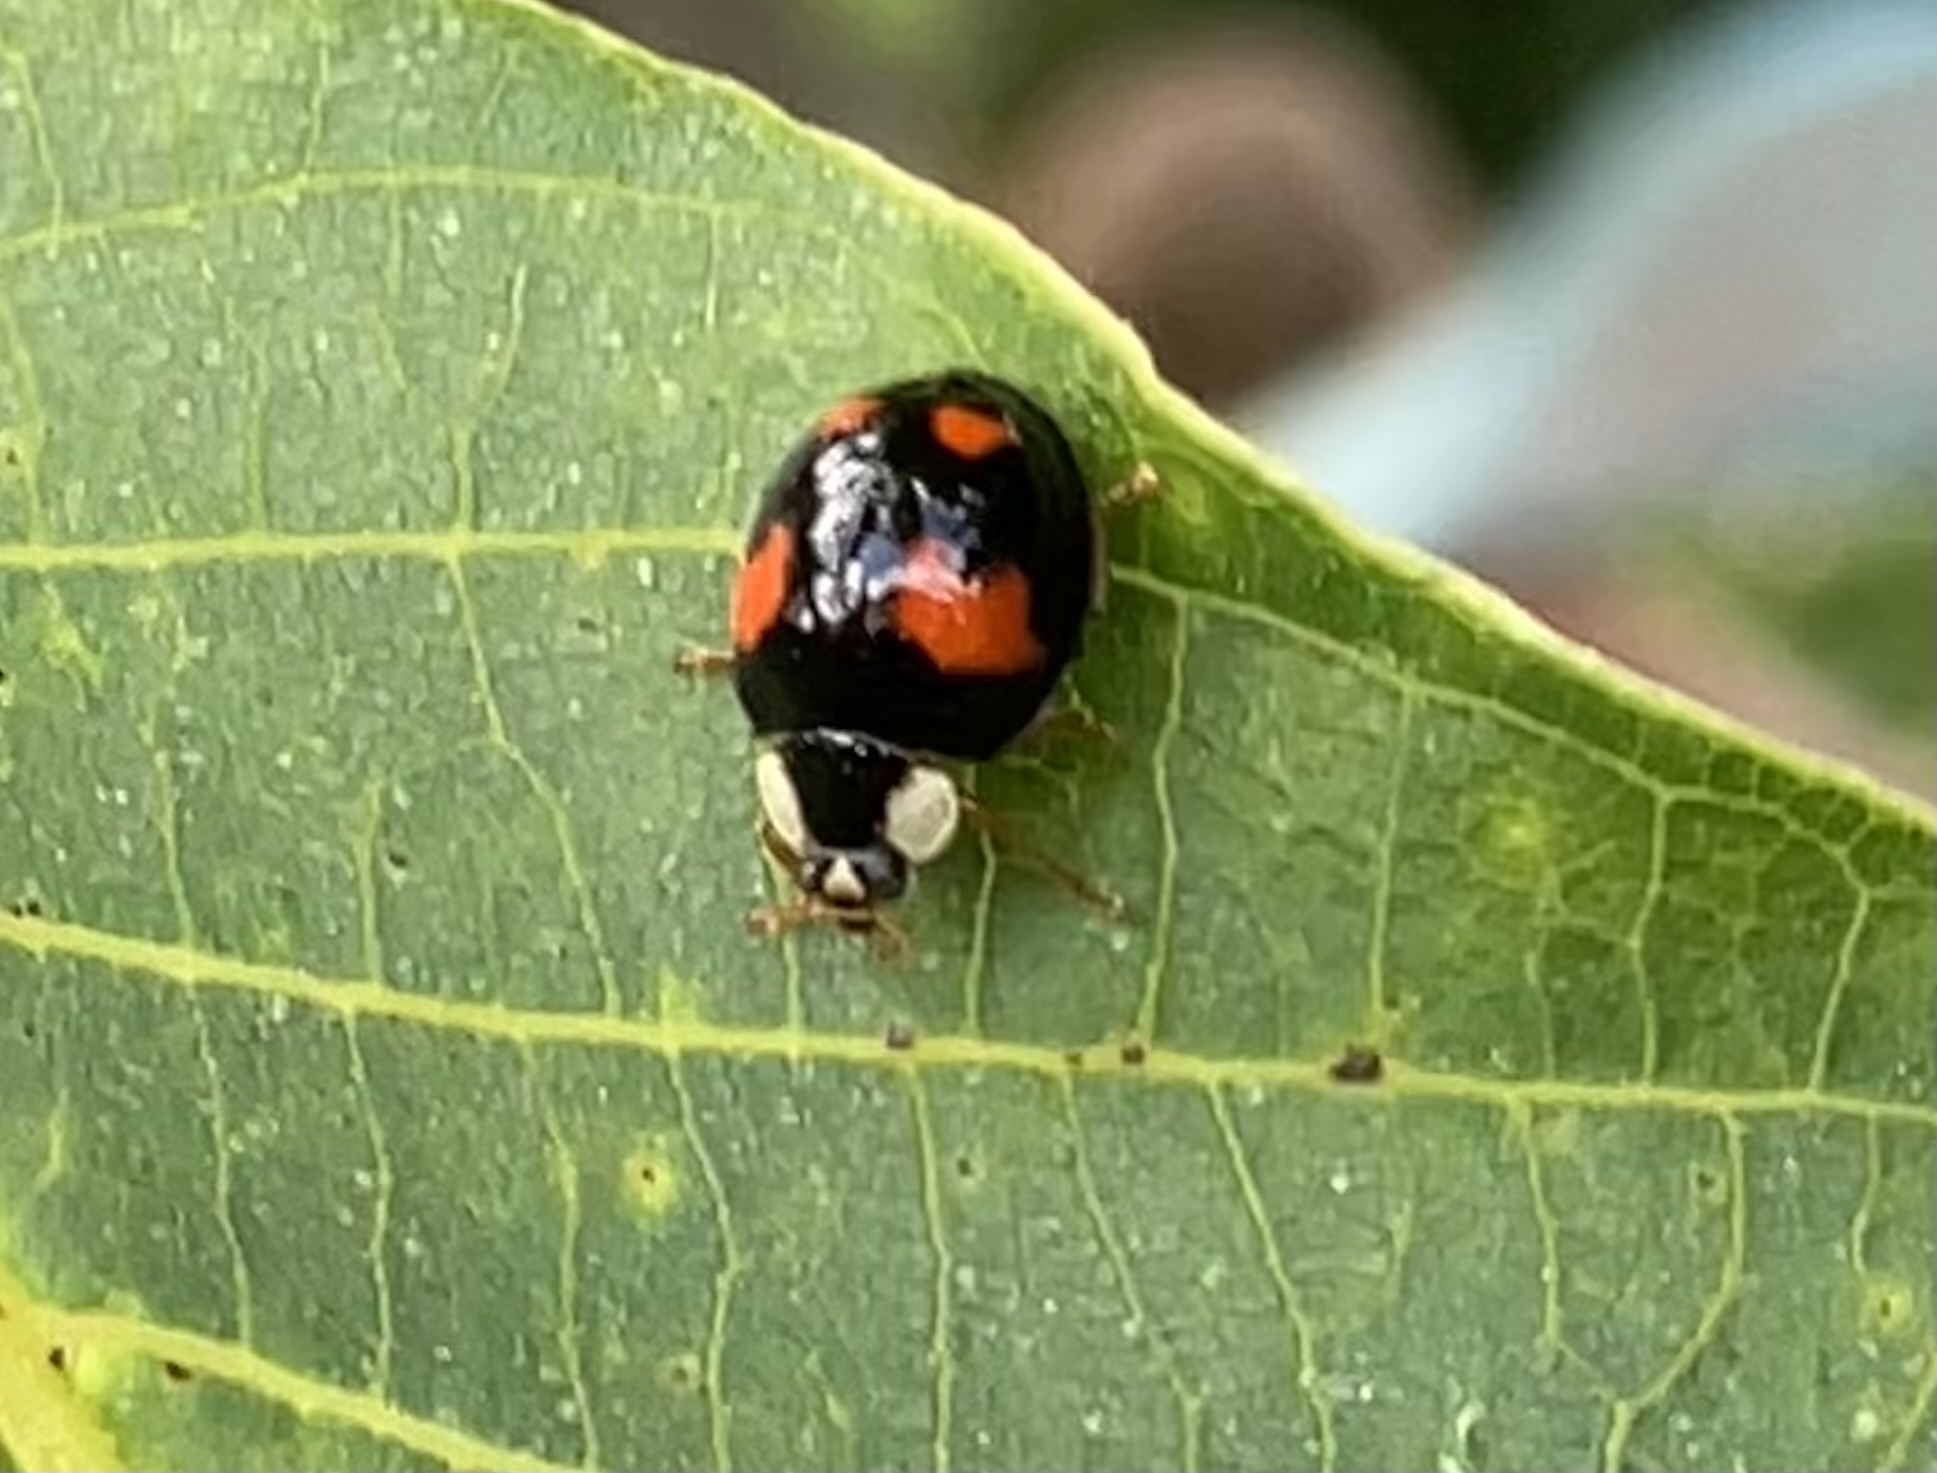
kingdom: Animalia
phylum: Arthropoda
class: Insecta
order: Coleoptera
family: Coccinellidae
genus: Harmonia
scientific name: Harmonia axyridis
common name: Harlequin ladybird
